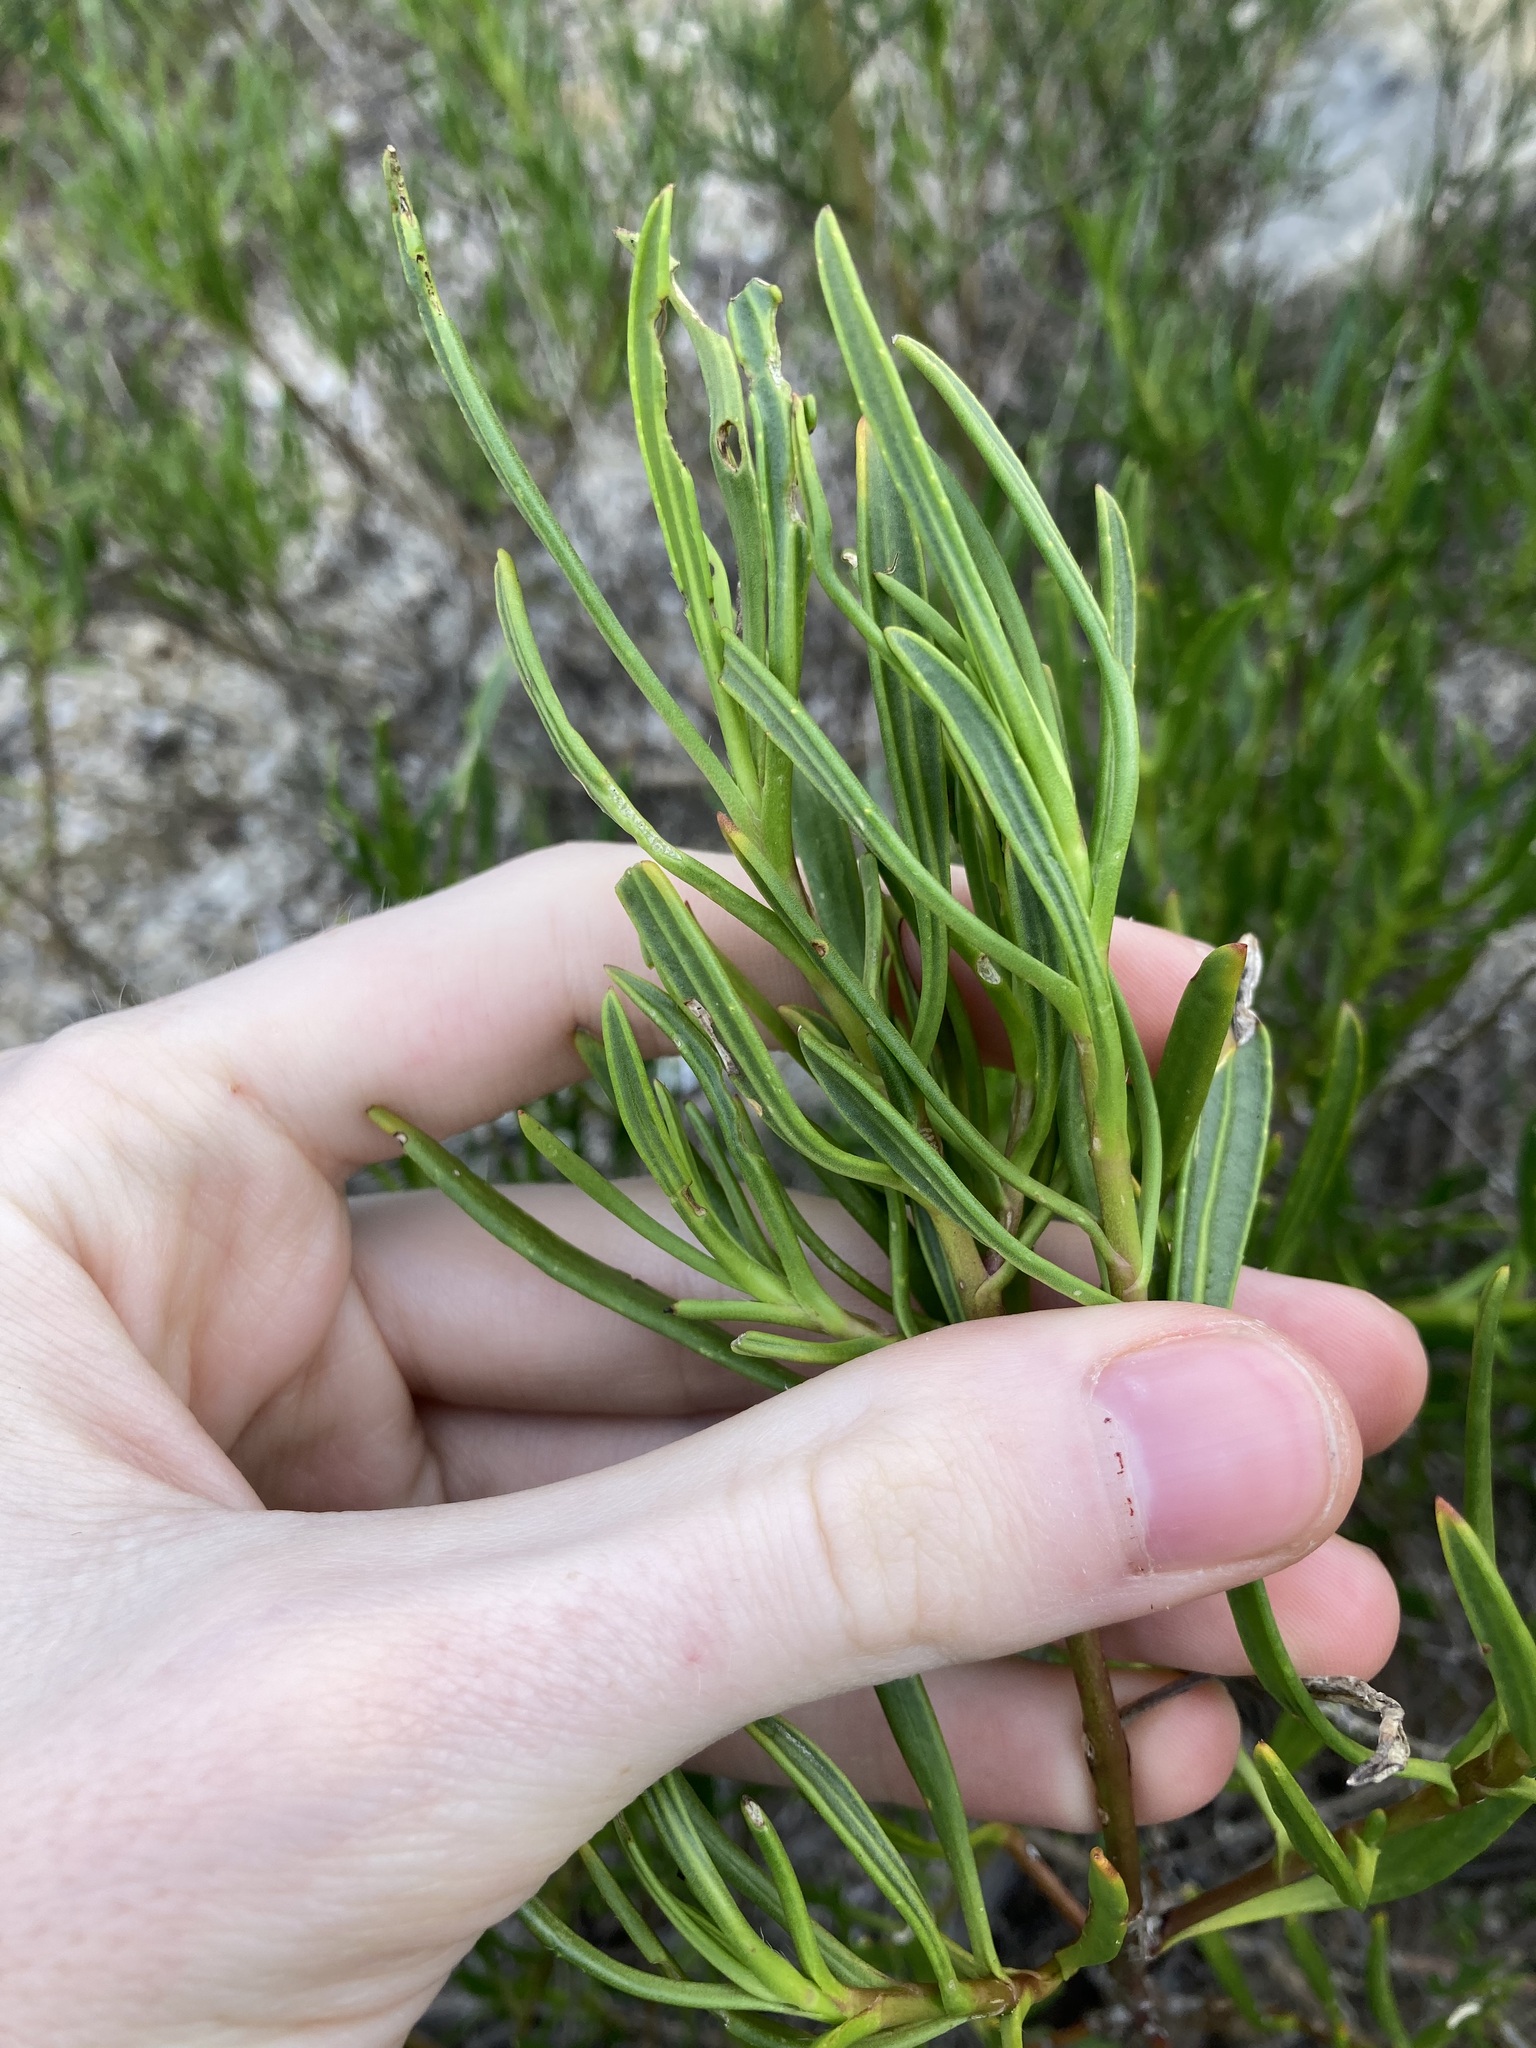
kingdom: Plantae
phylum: Tracheophyta
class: Magnoliopsida
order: Asterales
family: Goodeniaceae
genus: Scaevola
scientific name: Scaevola anchusifolia
